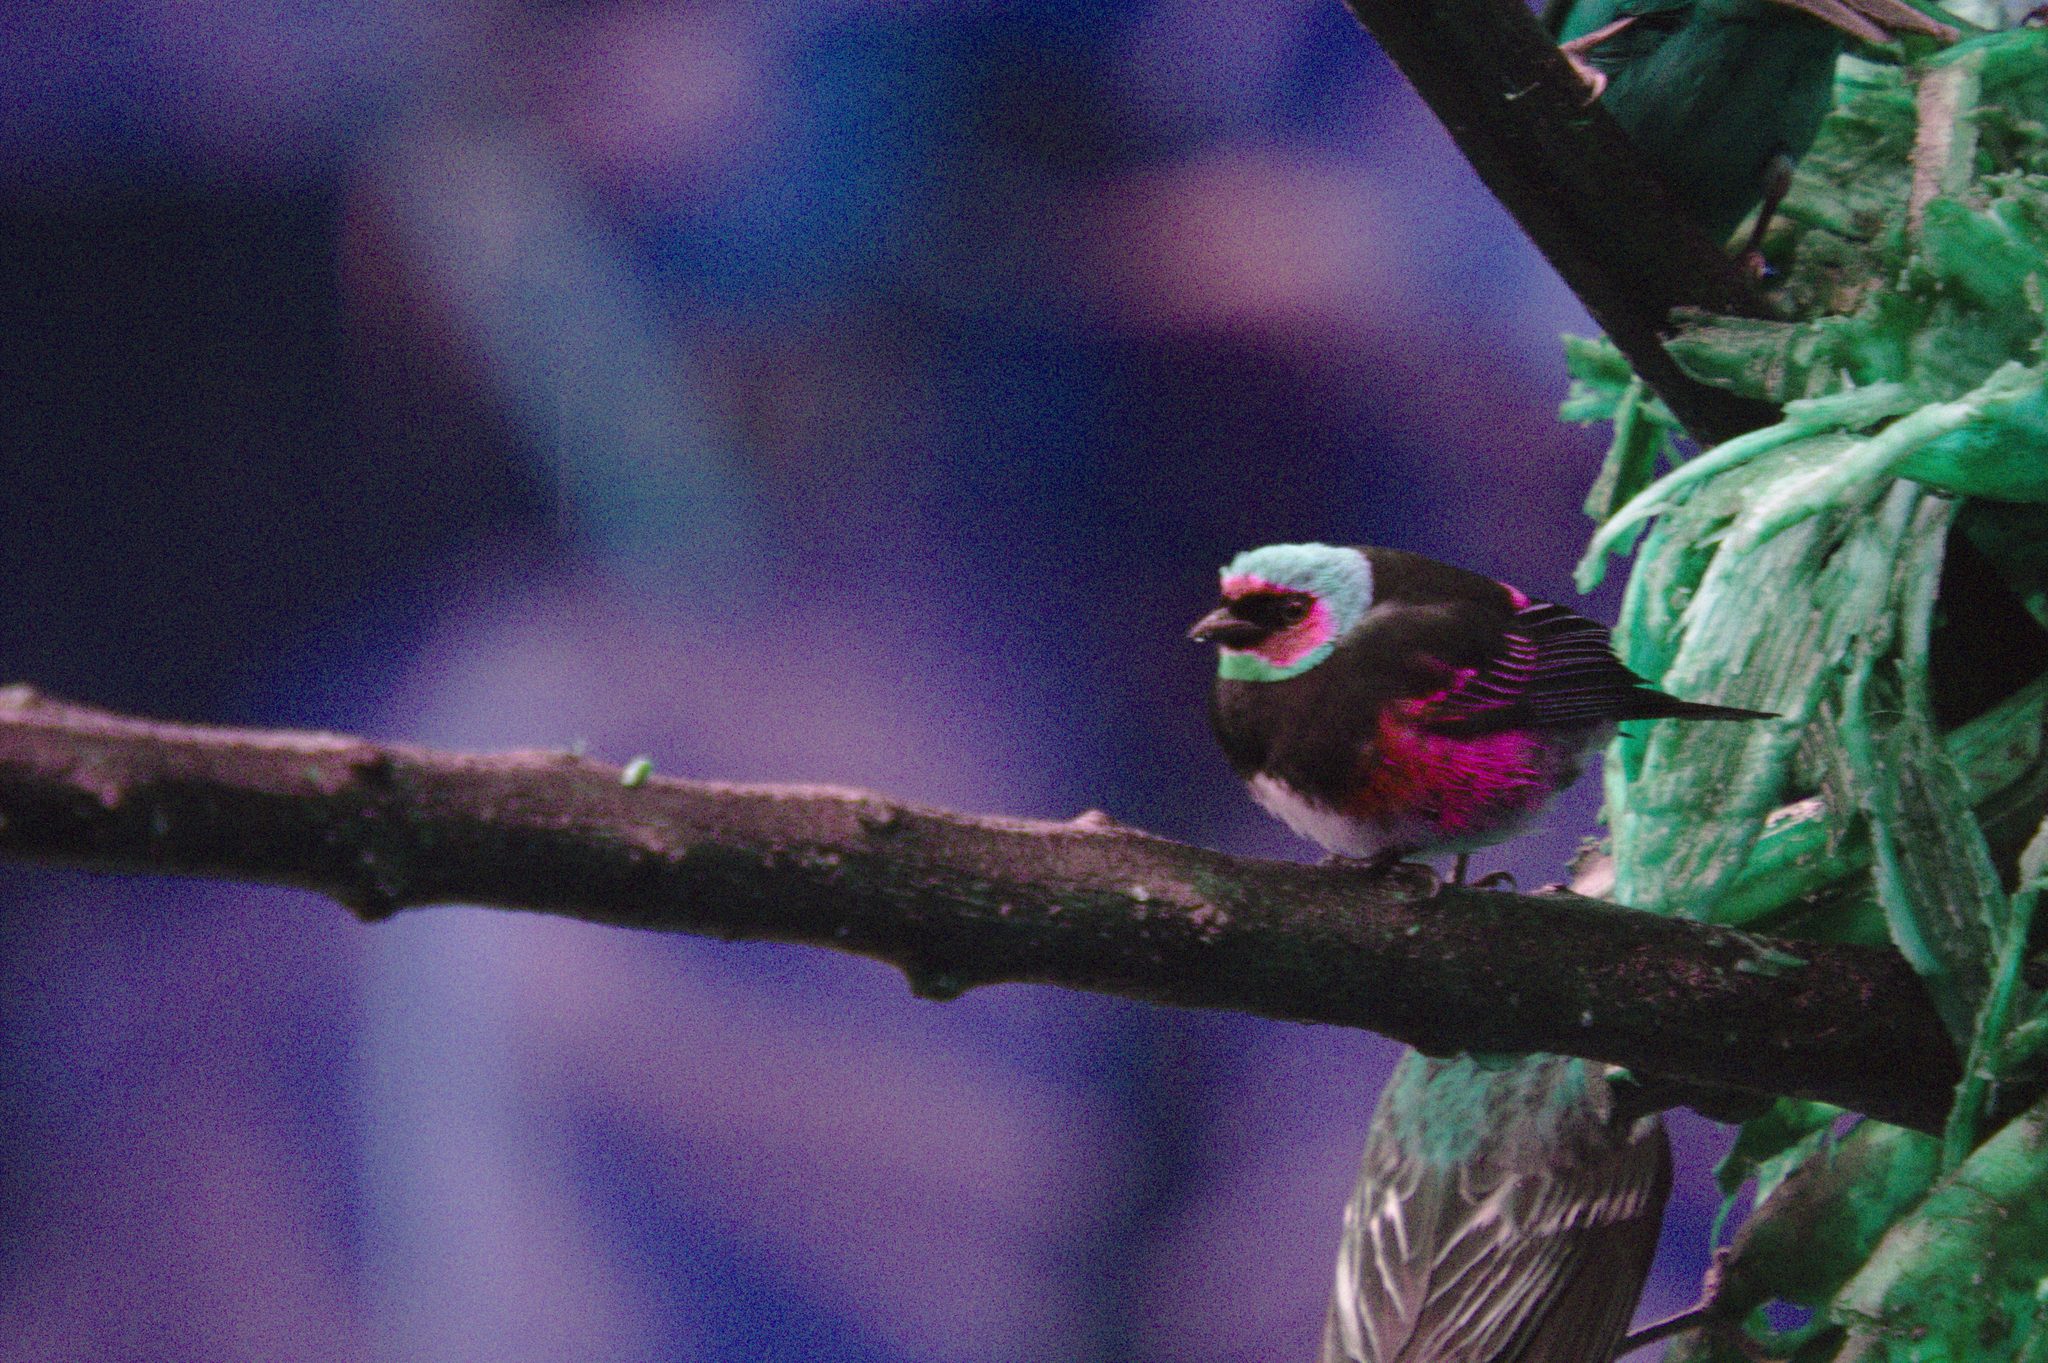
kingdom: Animalia
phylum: Chordata
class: Aves
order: Passeriformes
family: Thraupidae
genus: Stilpnia
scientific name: Stilpnia larvata
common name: Golden-hooded tanager
